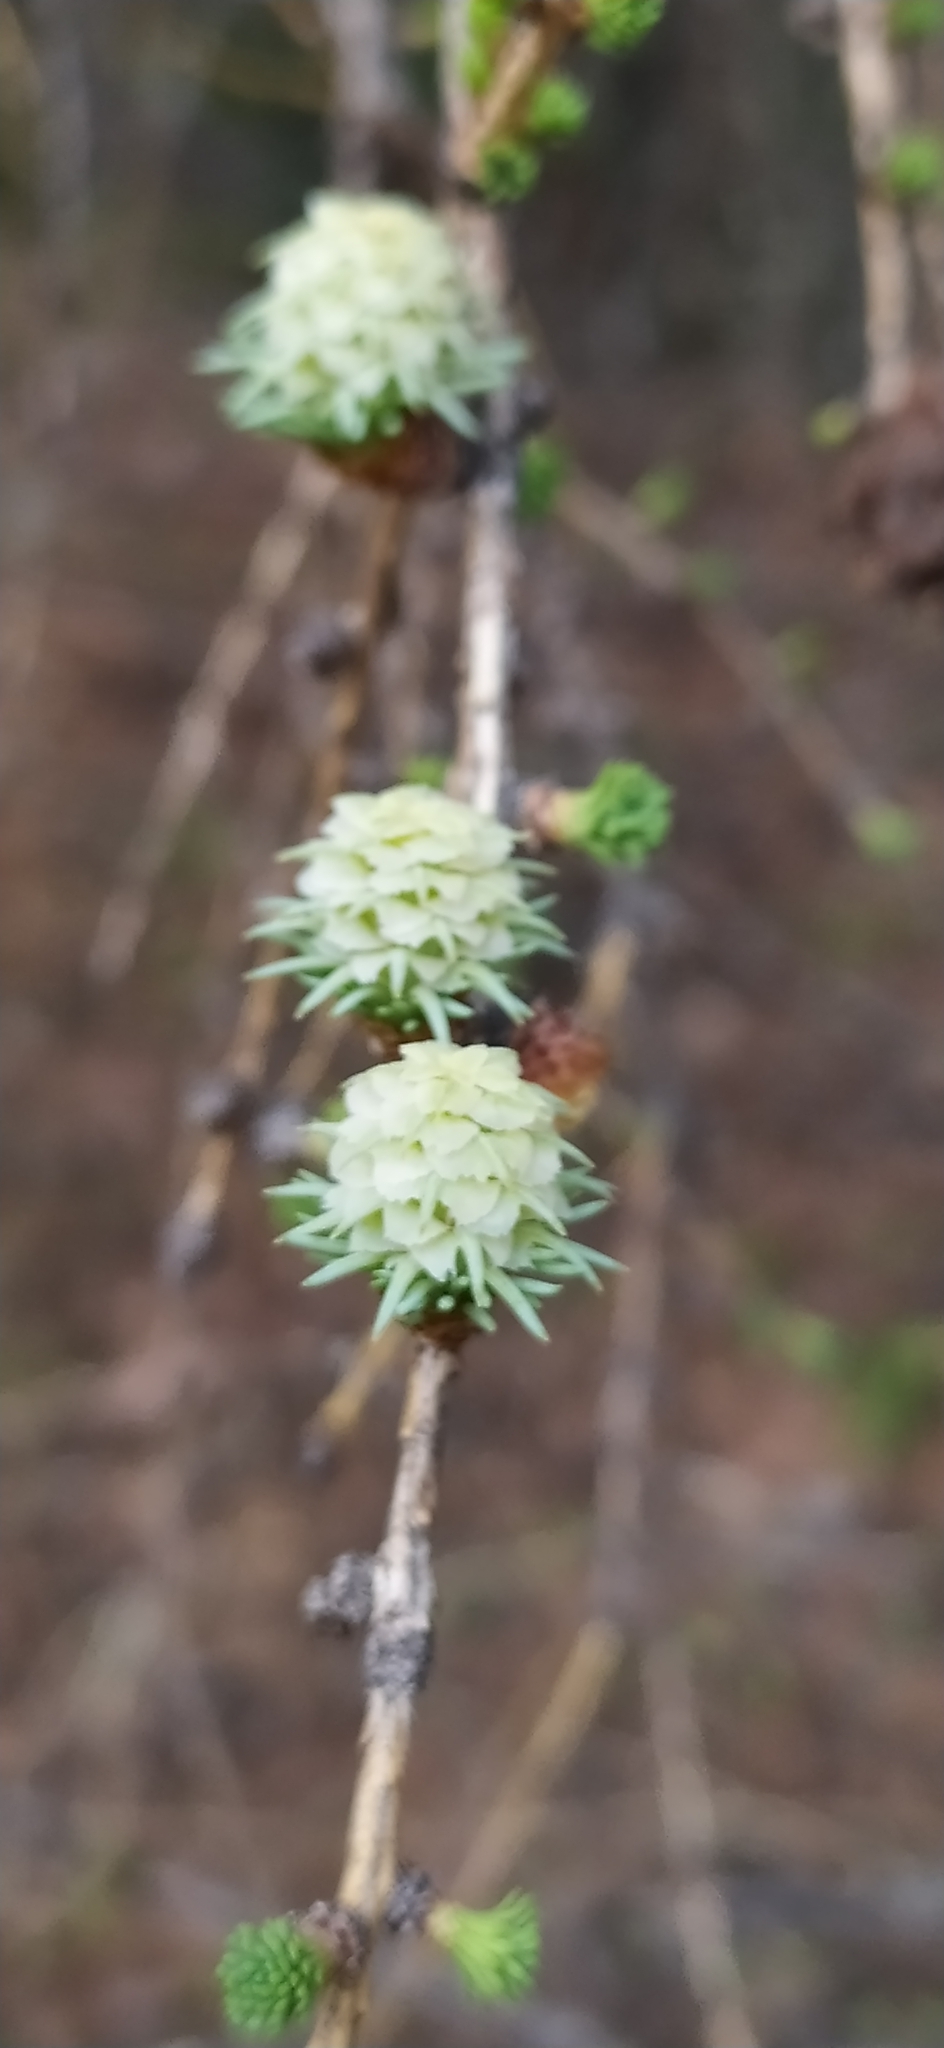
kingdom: Plantae
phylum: Tracheophyta
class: Pinopsida
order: Pinales
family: Pinaceae
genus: Larix
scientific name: Larix sibirica
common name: Siberian larch
